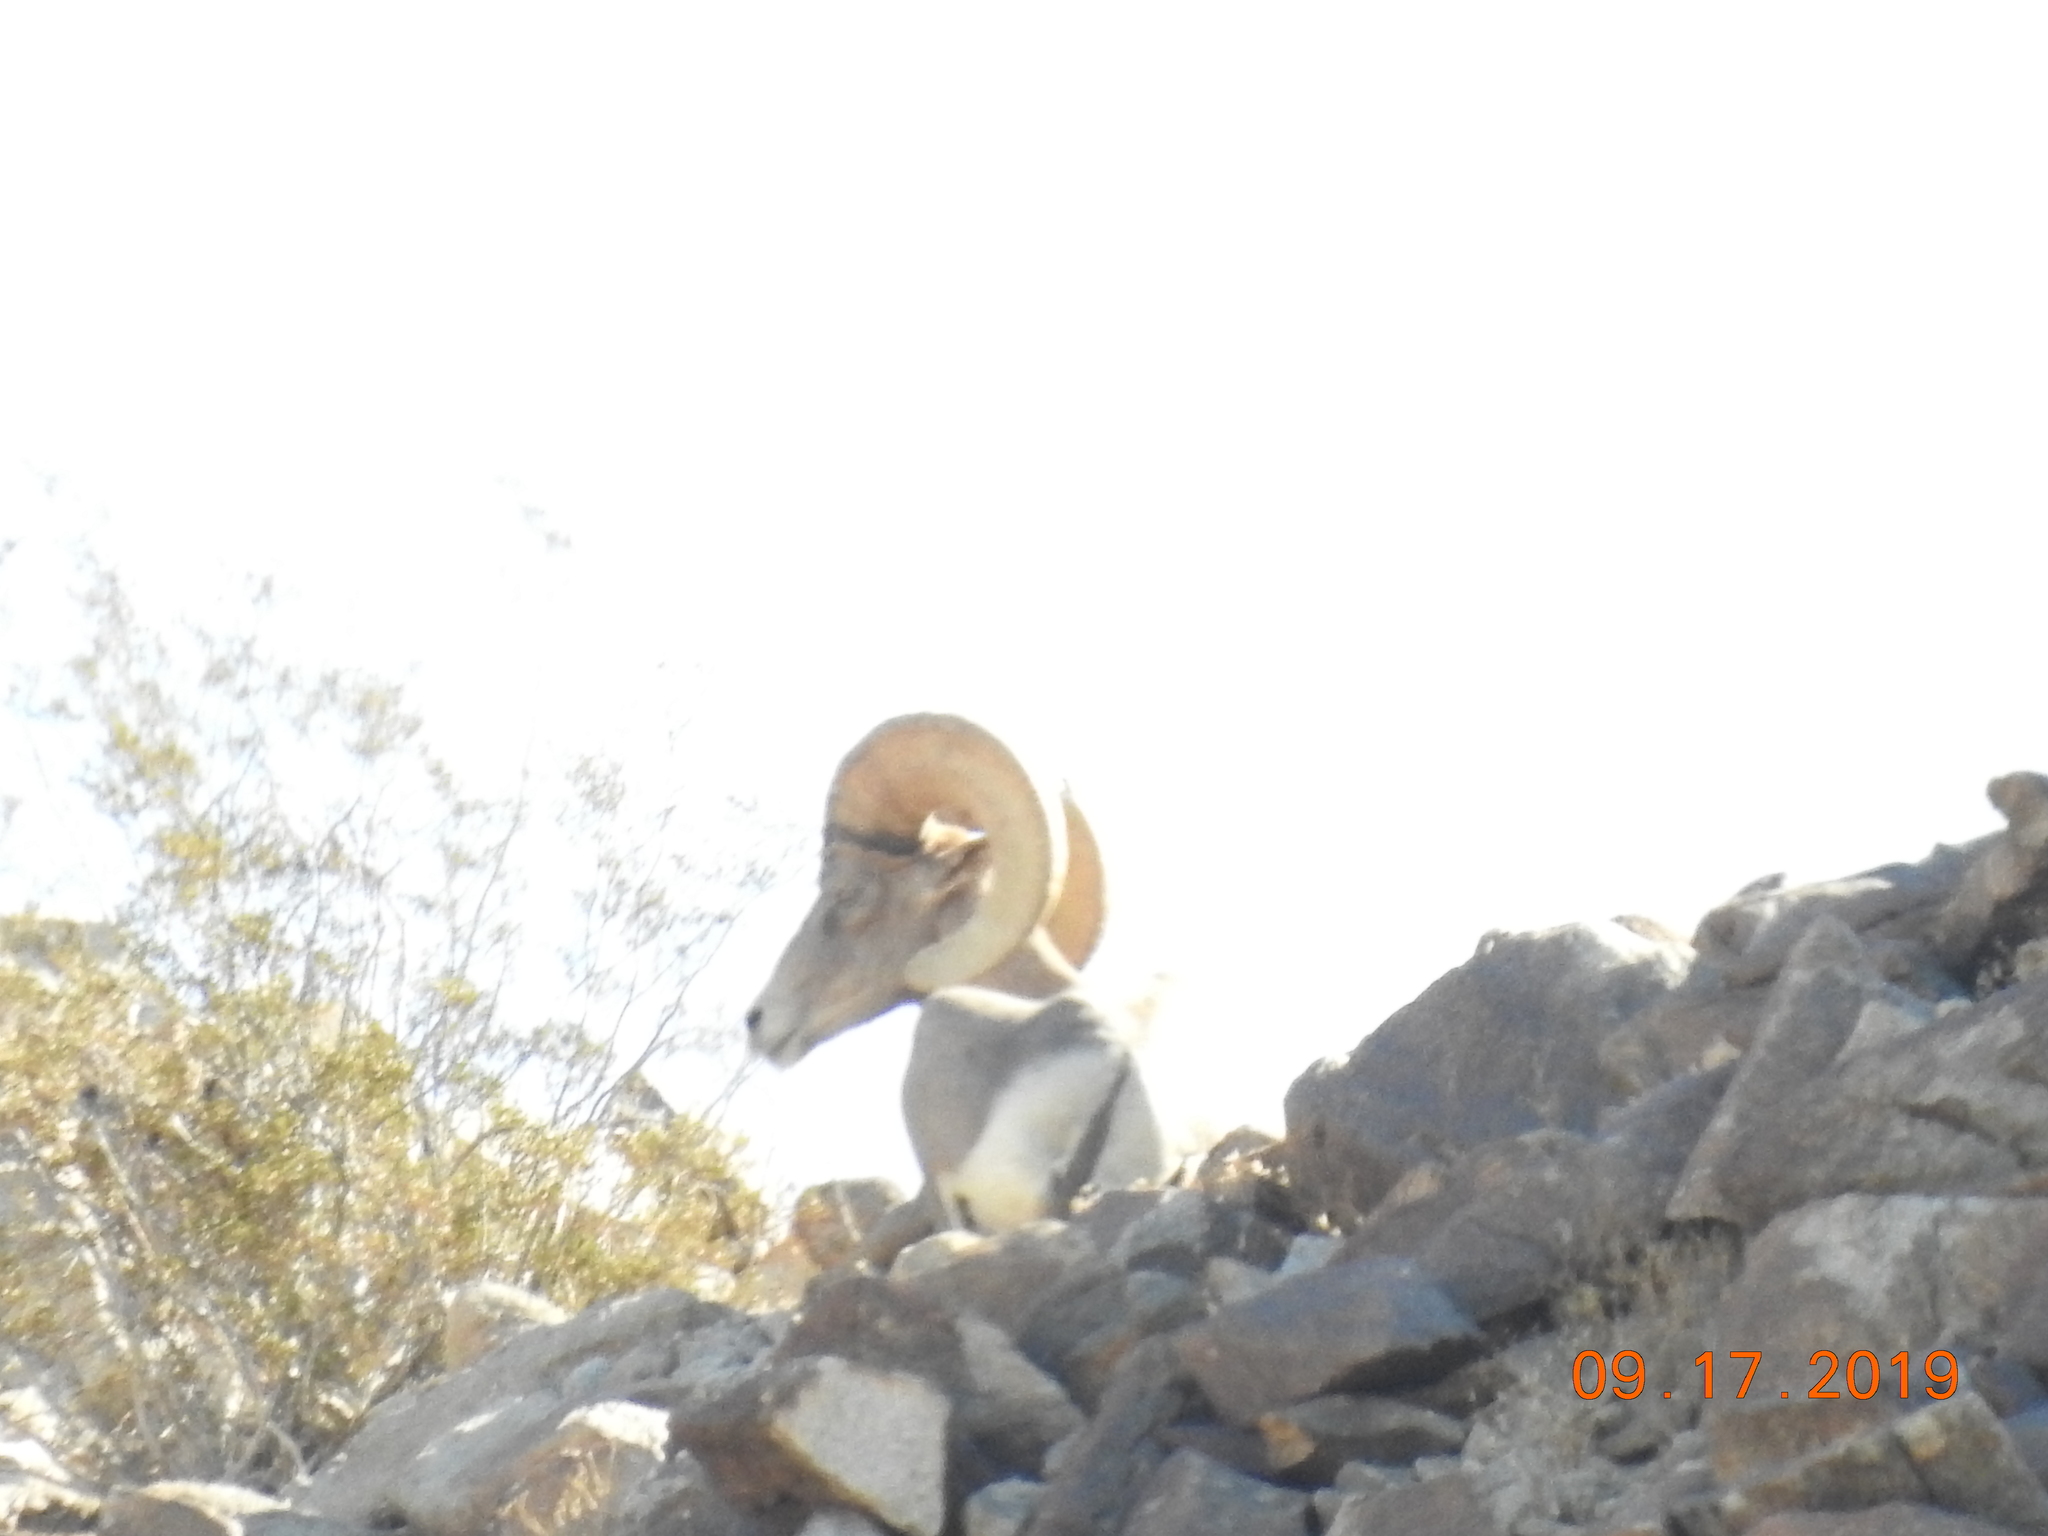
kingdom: Animalia
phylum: Chordata
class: Mammalia
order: Artiodactyla
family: Bovidae
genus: Ovis
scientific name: Ovis canadensis
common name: Bighorn sheep
